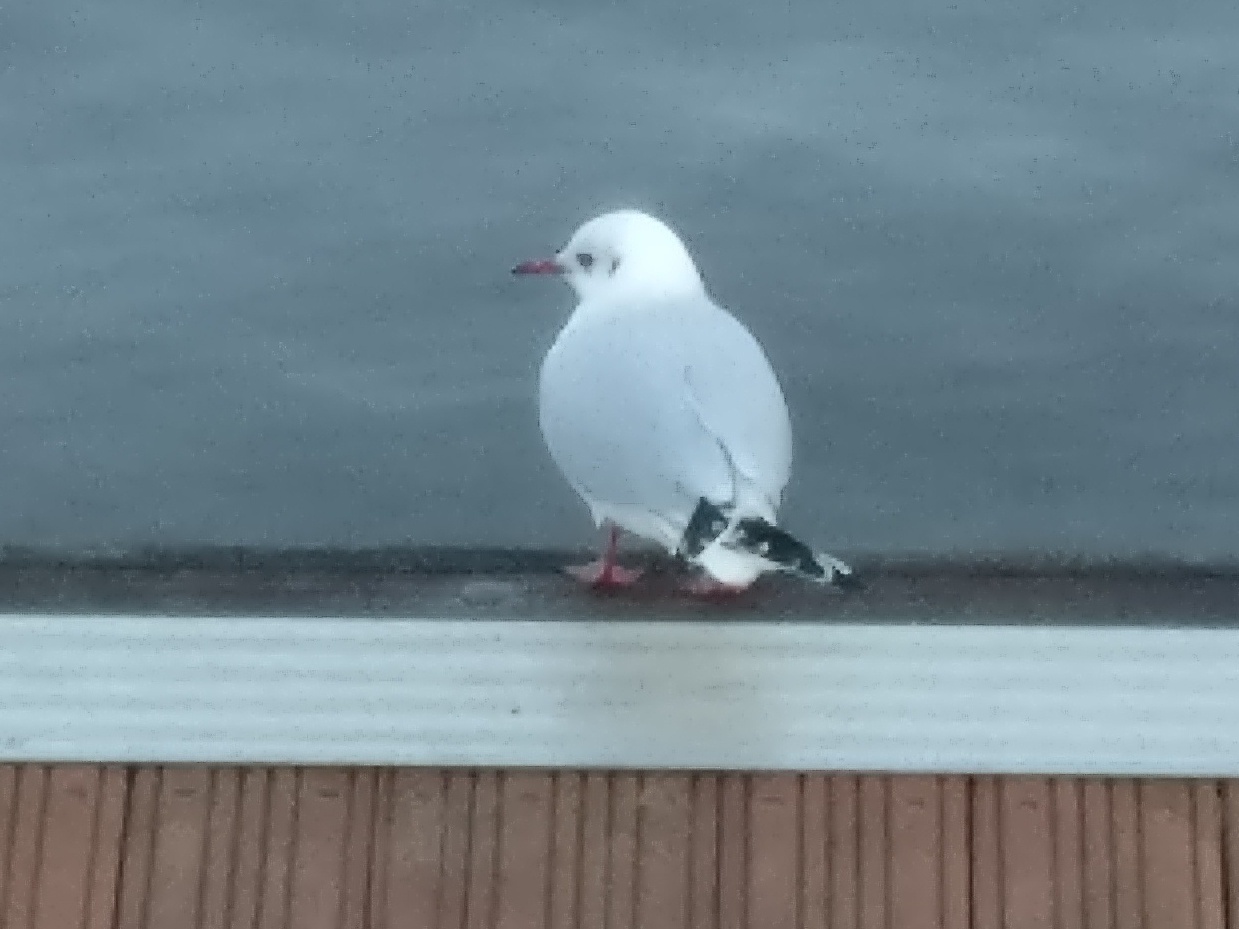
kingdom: Animalia
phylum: Chordata
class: Aves
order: Charadriiformes
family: Laridae
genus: Chroicocephalus
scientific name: Chroicocephalus ridibundus
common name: Black-headed gull
